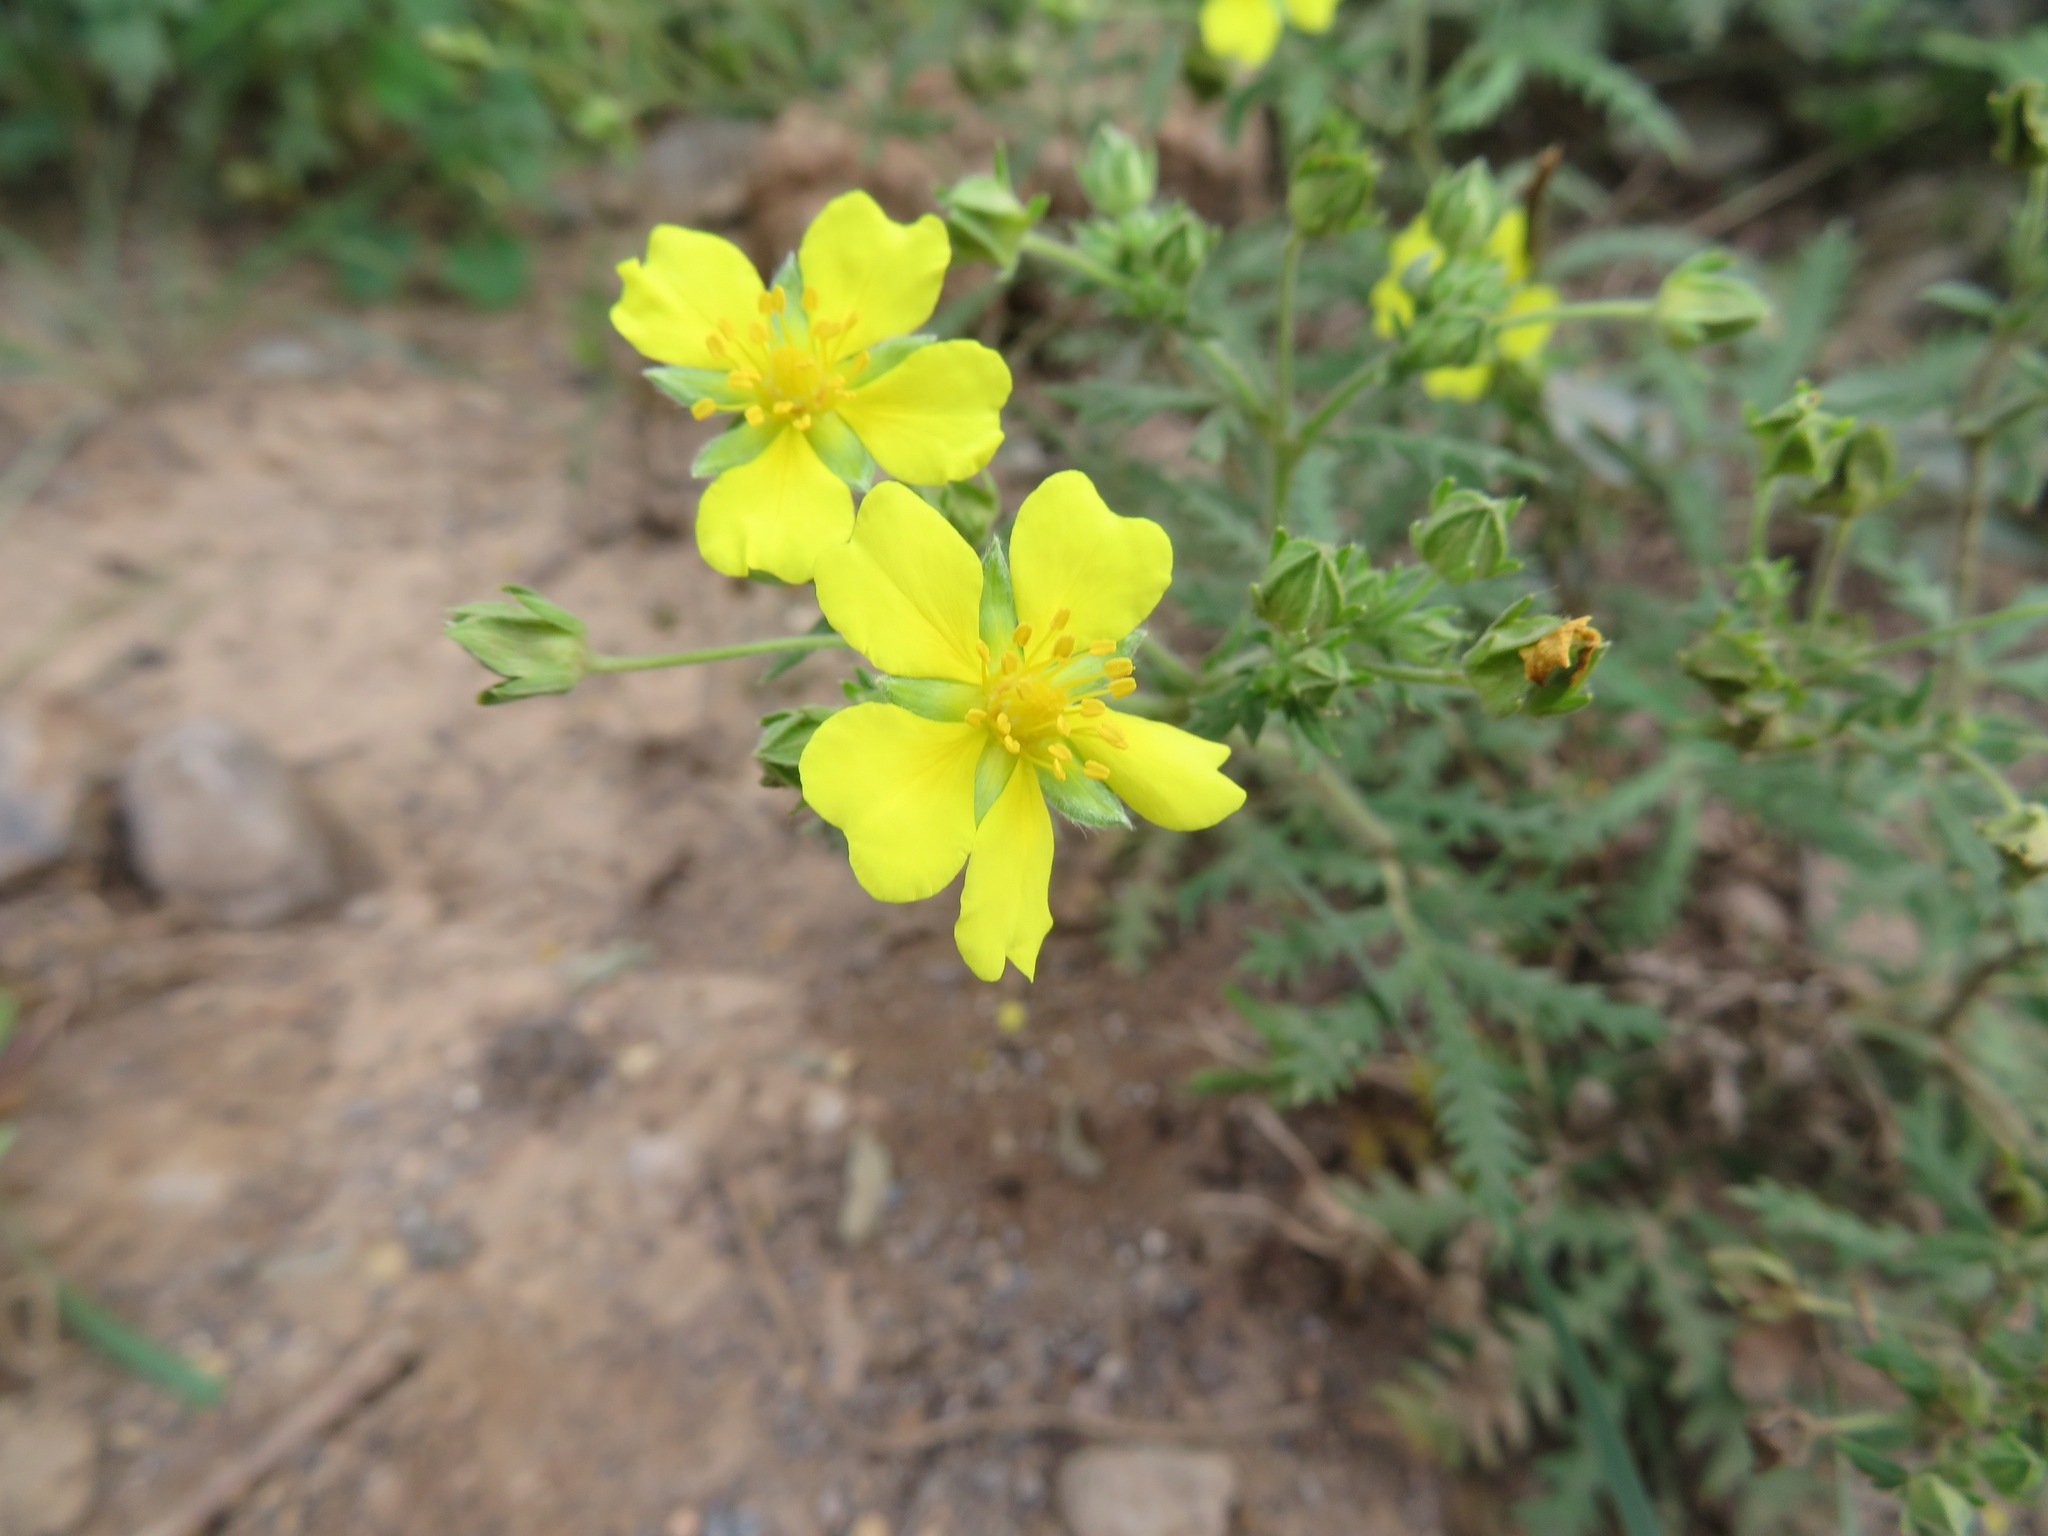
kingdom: Plantae
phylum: Tracheophyta
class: Magnoliopsida
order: Rosales
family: Rosaceae
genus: Potentilla
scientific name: Potentilla chinensis
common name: Chinese cinquefoil
